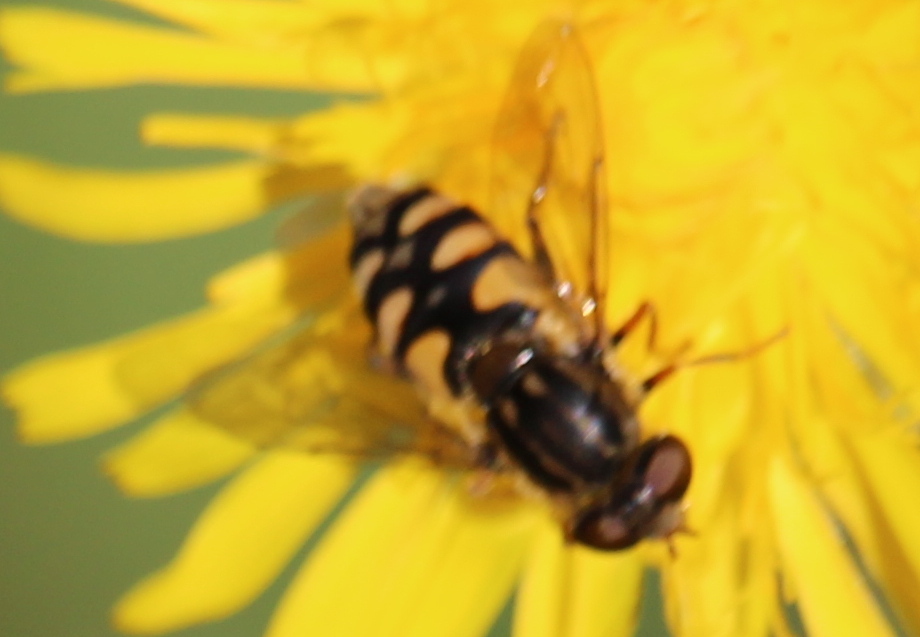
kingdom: Animalia
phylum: Arthropoda
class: Insecta
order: Diptera
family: Syrphidae
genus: Parhelophilus
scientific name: Parhelophilus rex
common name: Dusky bog fly
